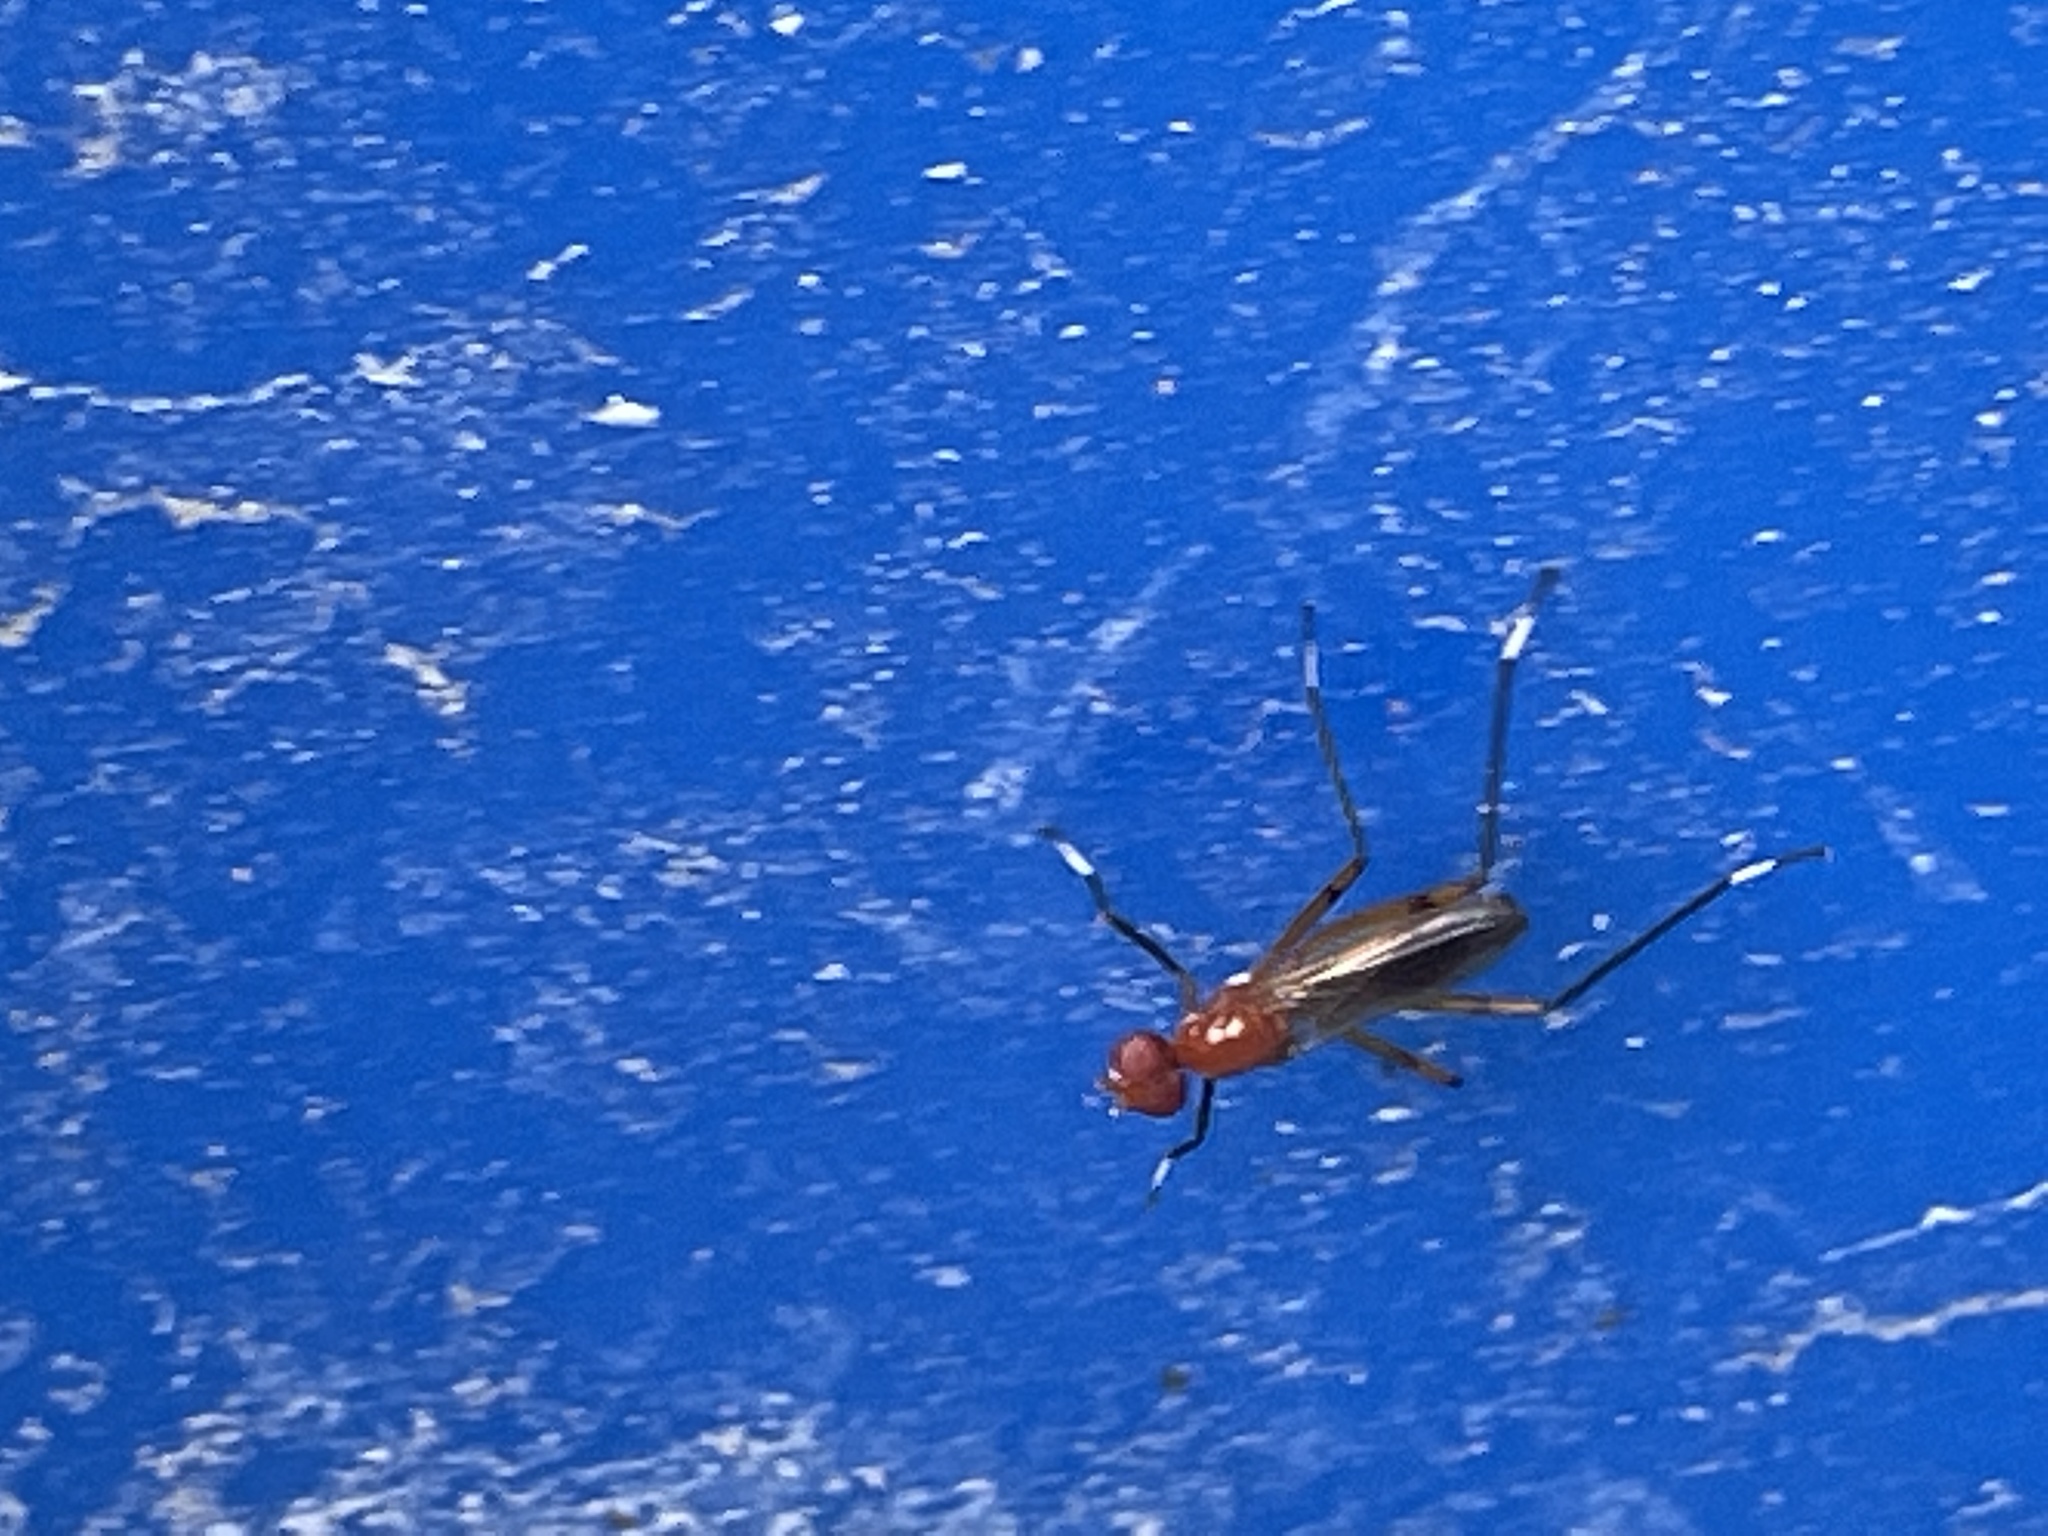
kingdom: Animalia
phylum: Arthropoda
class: Insecta
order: Diptera
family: Micropezidae
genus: Grallipeza
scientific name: Grallipeza nebulosa
